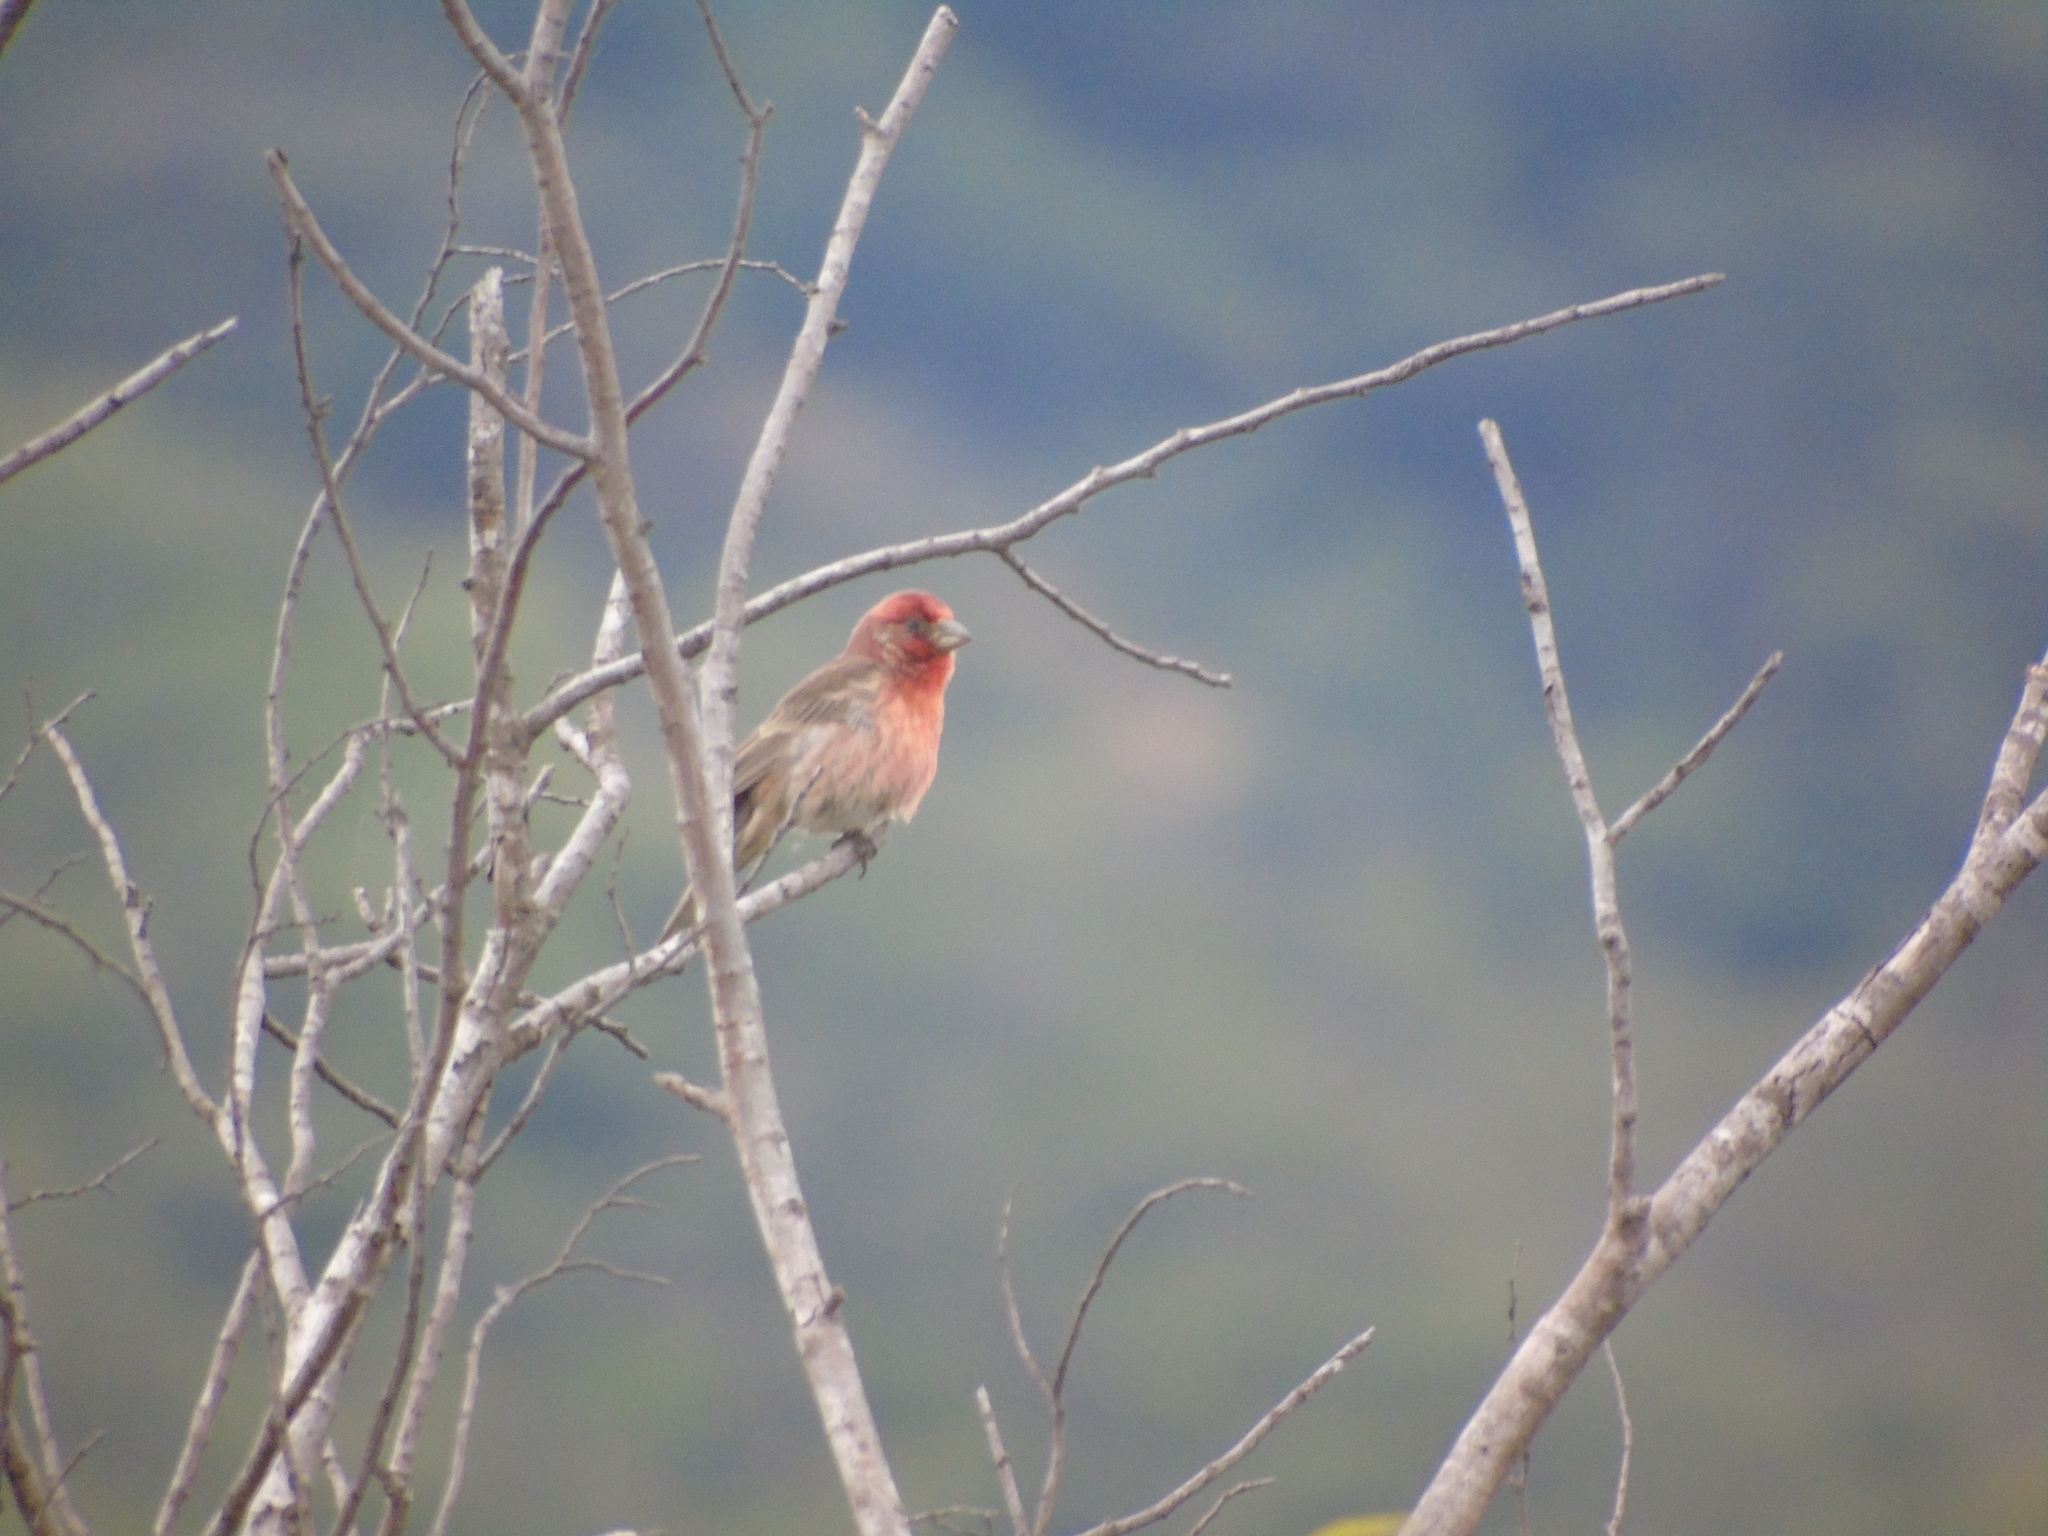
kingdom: Animalia
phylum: Chordata
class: Aves
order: Passeriformes
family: Fringillidae
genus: Haemorhous
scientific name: Haemorhous mexicanus
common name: House finch
